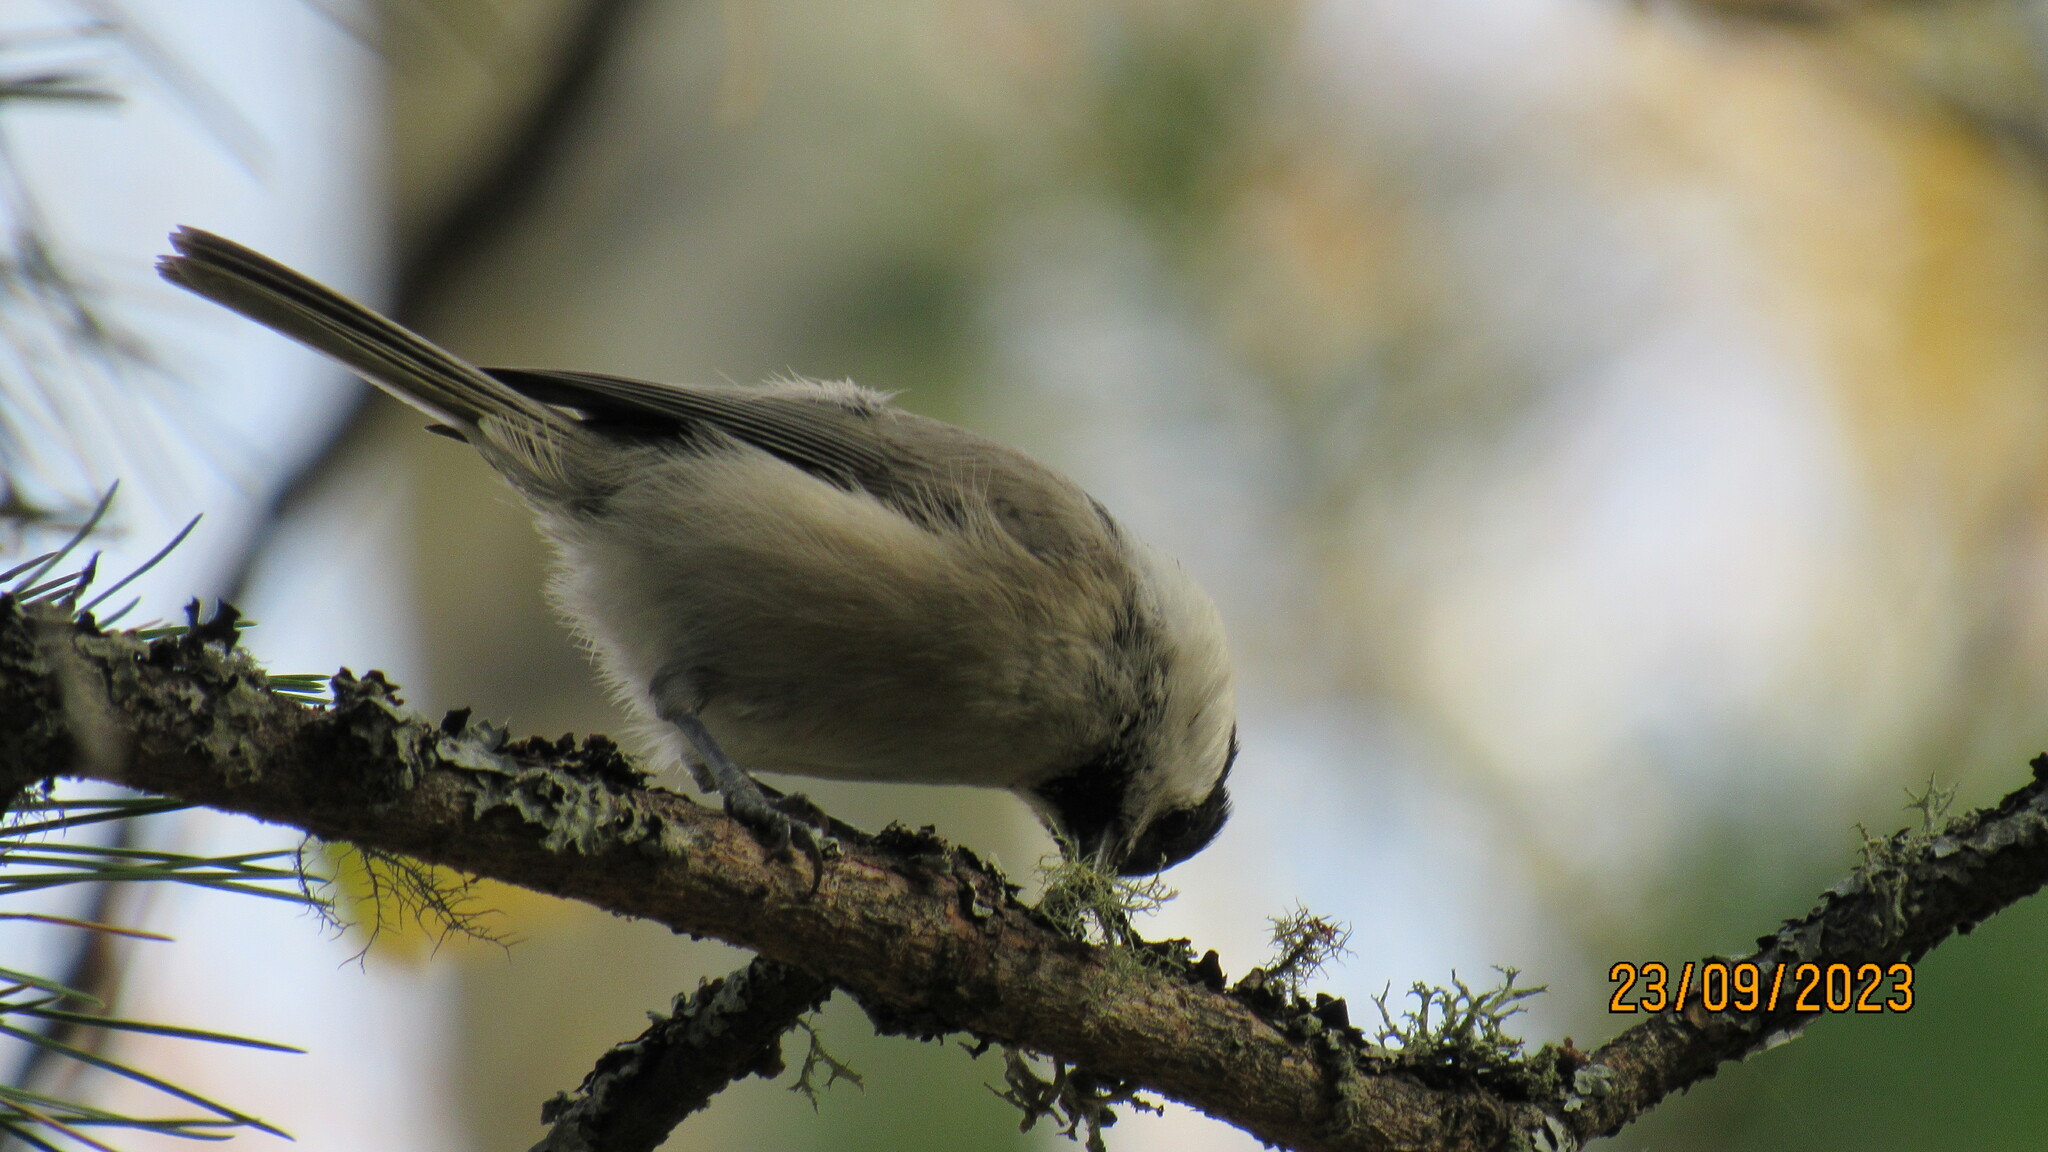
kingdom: Animalia
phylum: Chordata
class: Aves
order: Passeriformes
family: Paridae
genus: Poecile
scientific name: Poecile montanus
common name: Willow tit
